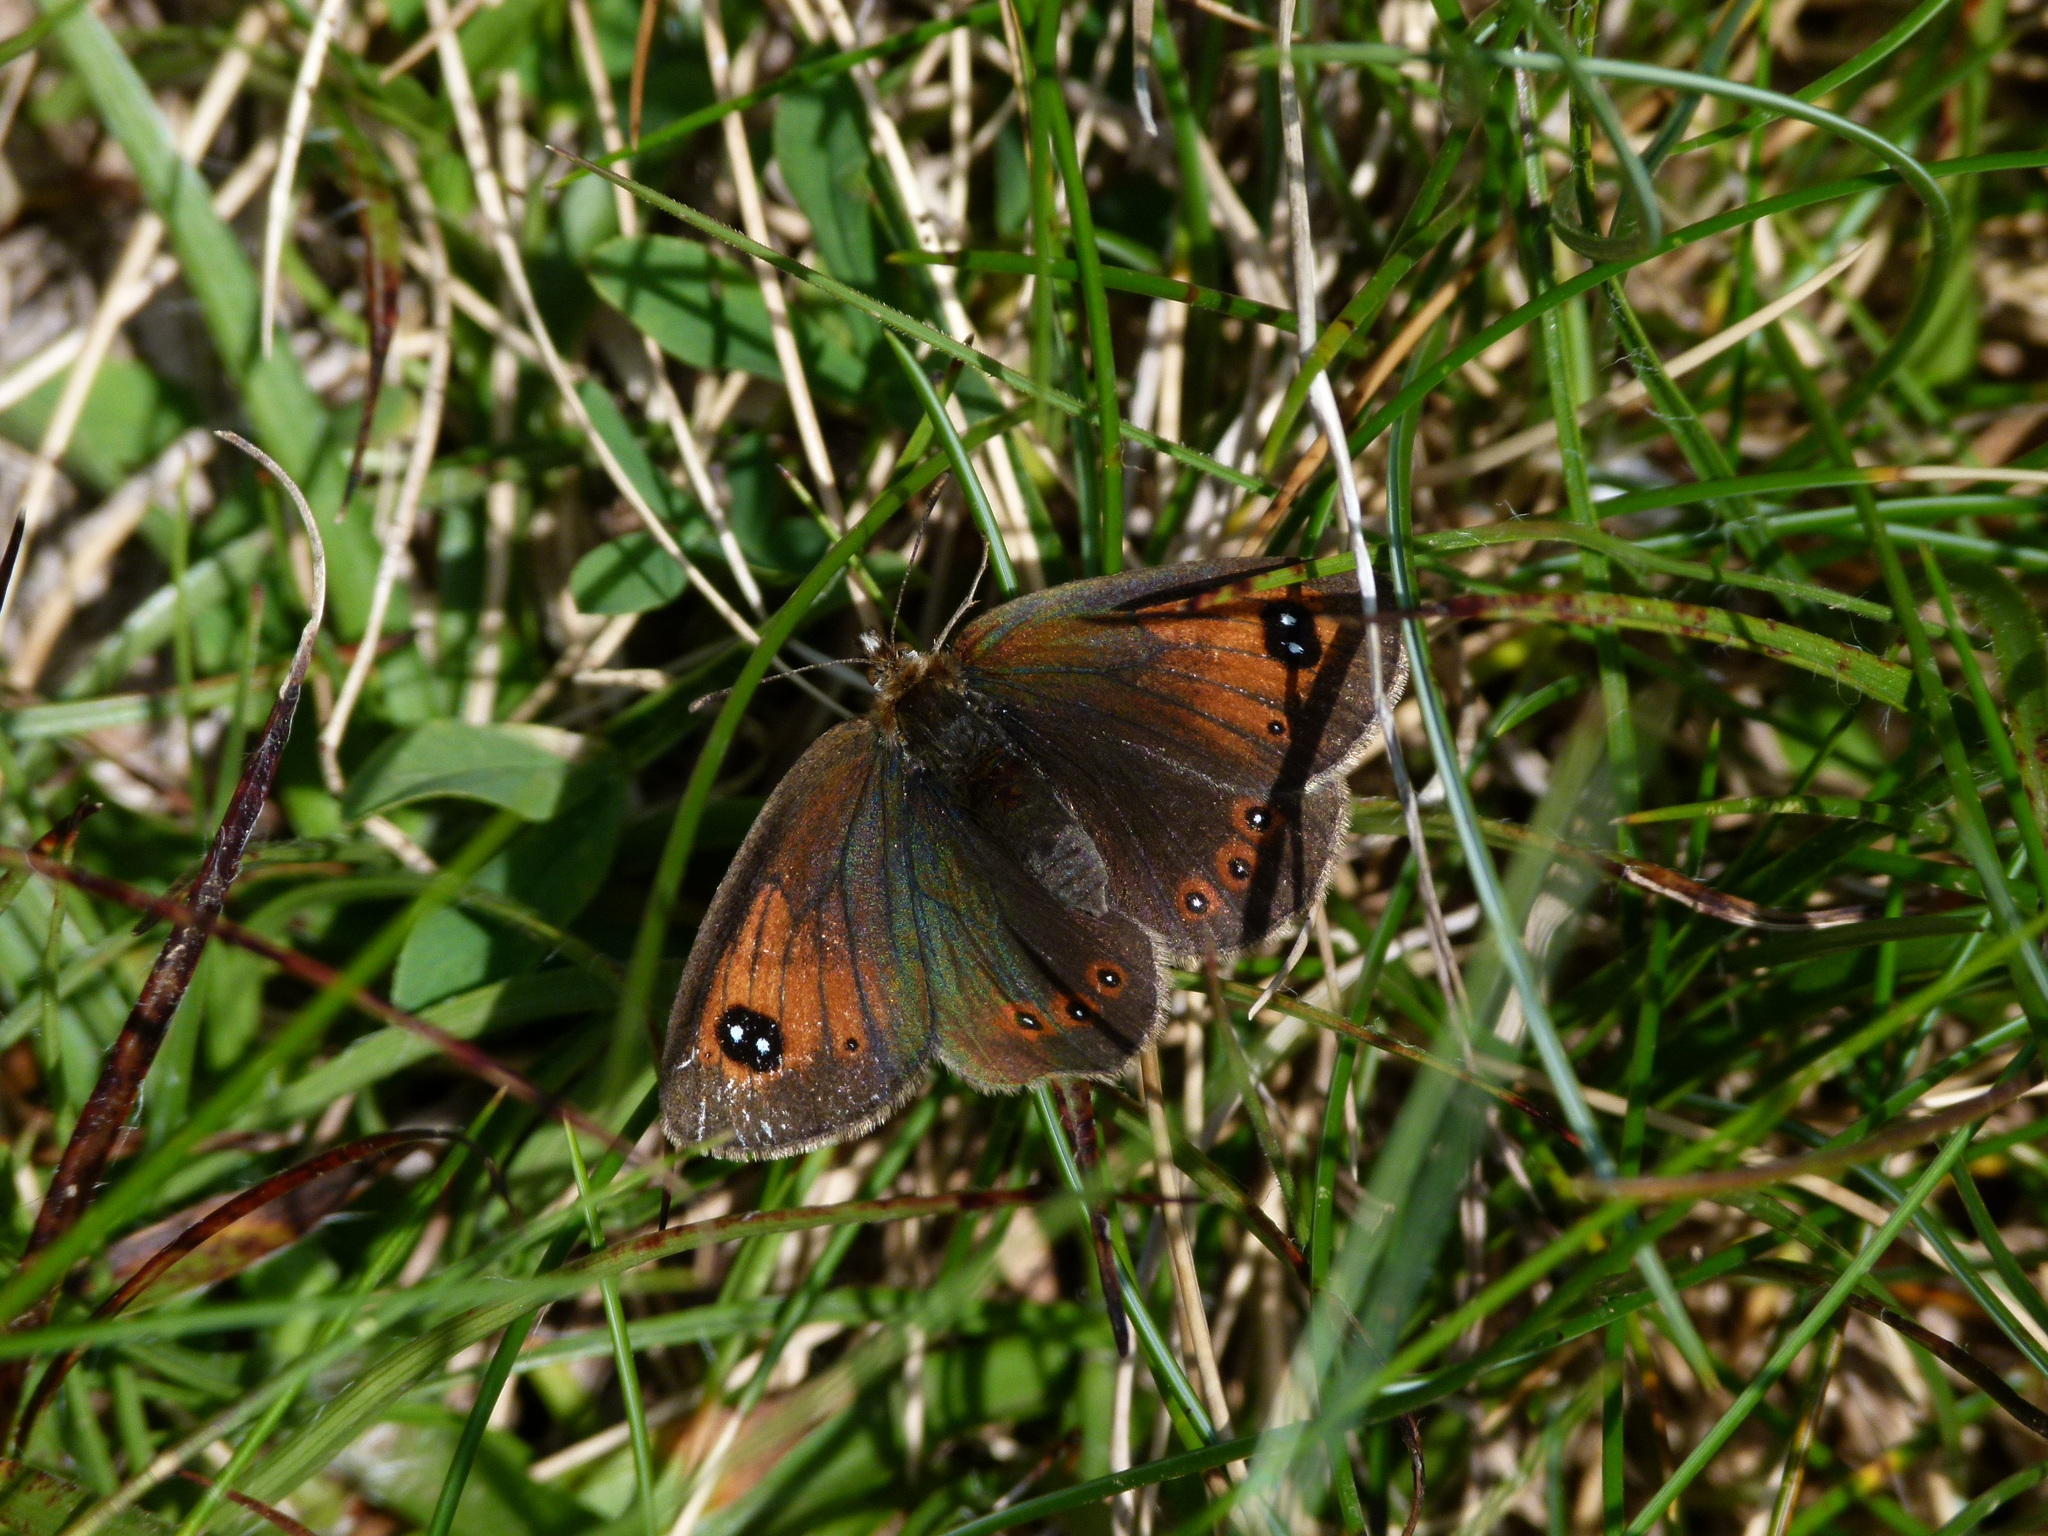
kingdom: Animalia
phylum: Arthropoda
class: Insecta
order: Lepidoptera
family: Nymphalidae
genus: Erebia
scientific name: Erebia tyndarus
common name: Swiss brassy ringlet
